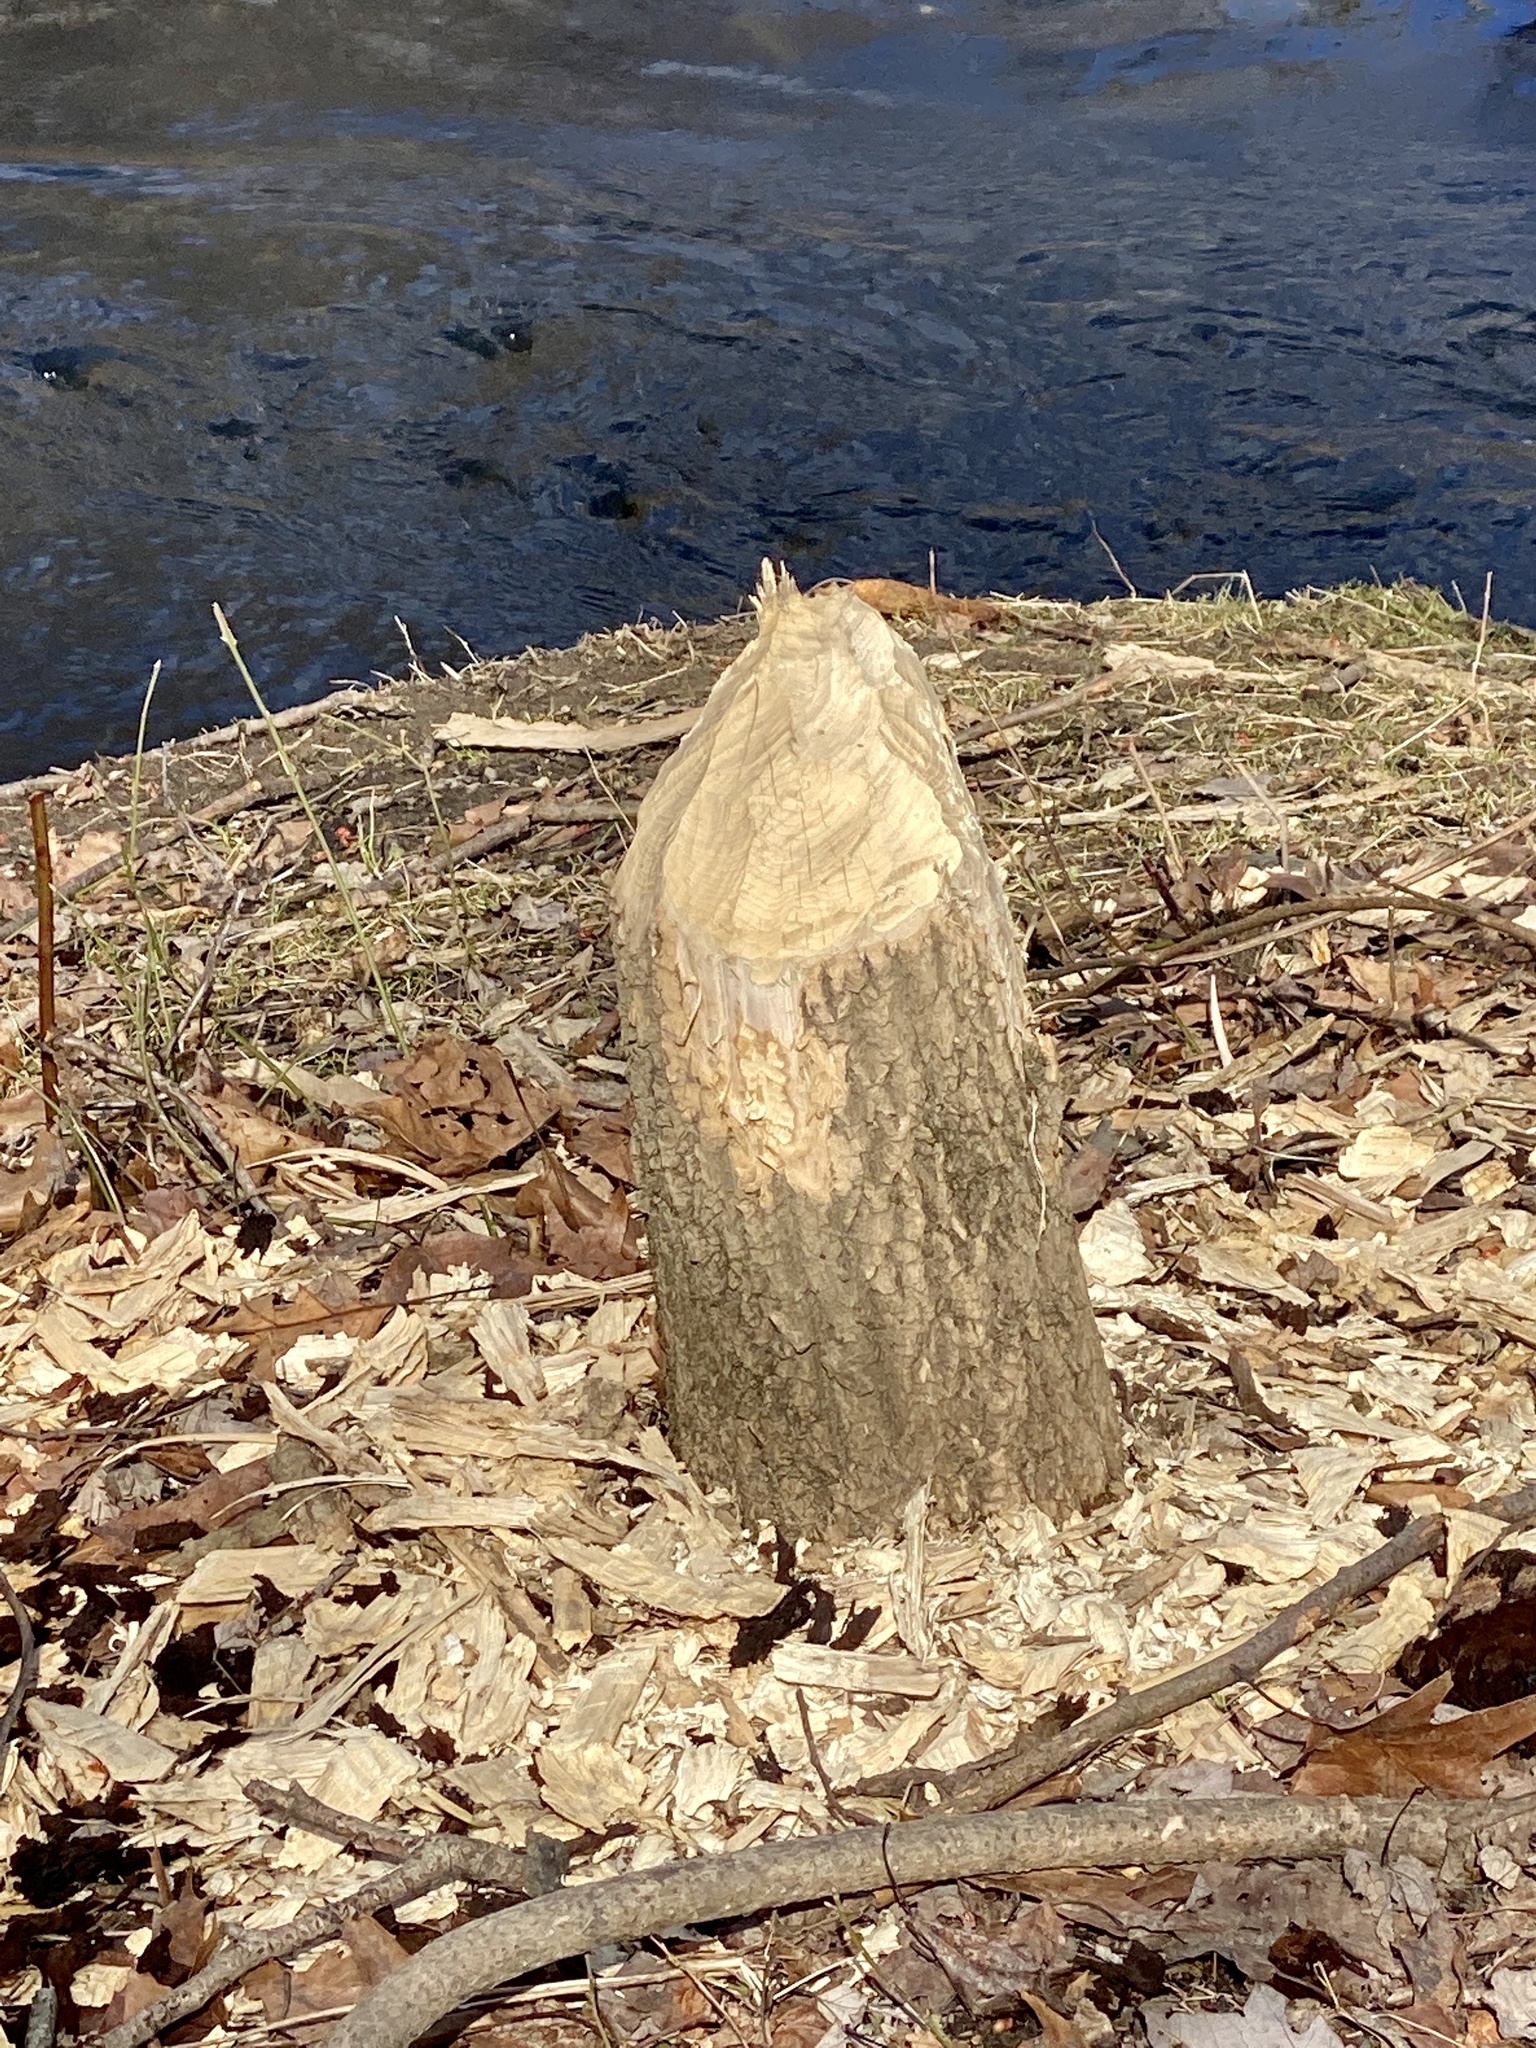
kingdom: Animalia
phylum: Chordata
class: Mammalia
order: Rodentia
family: Castoridae
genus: Castor
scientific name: Castor canadensis
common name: American beaver
